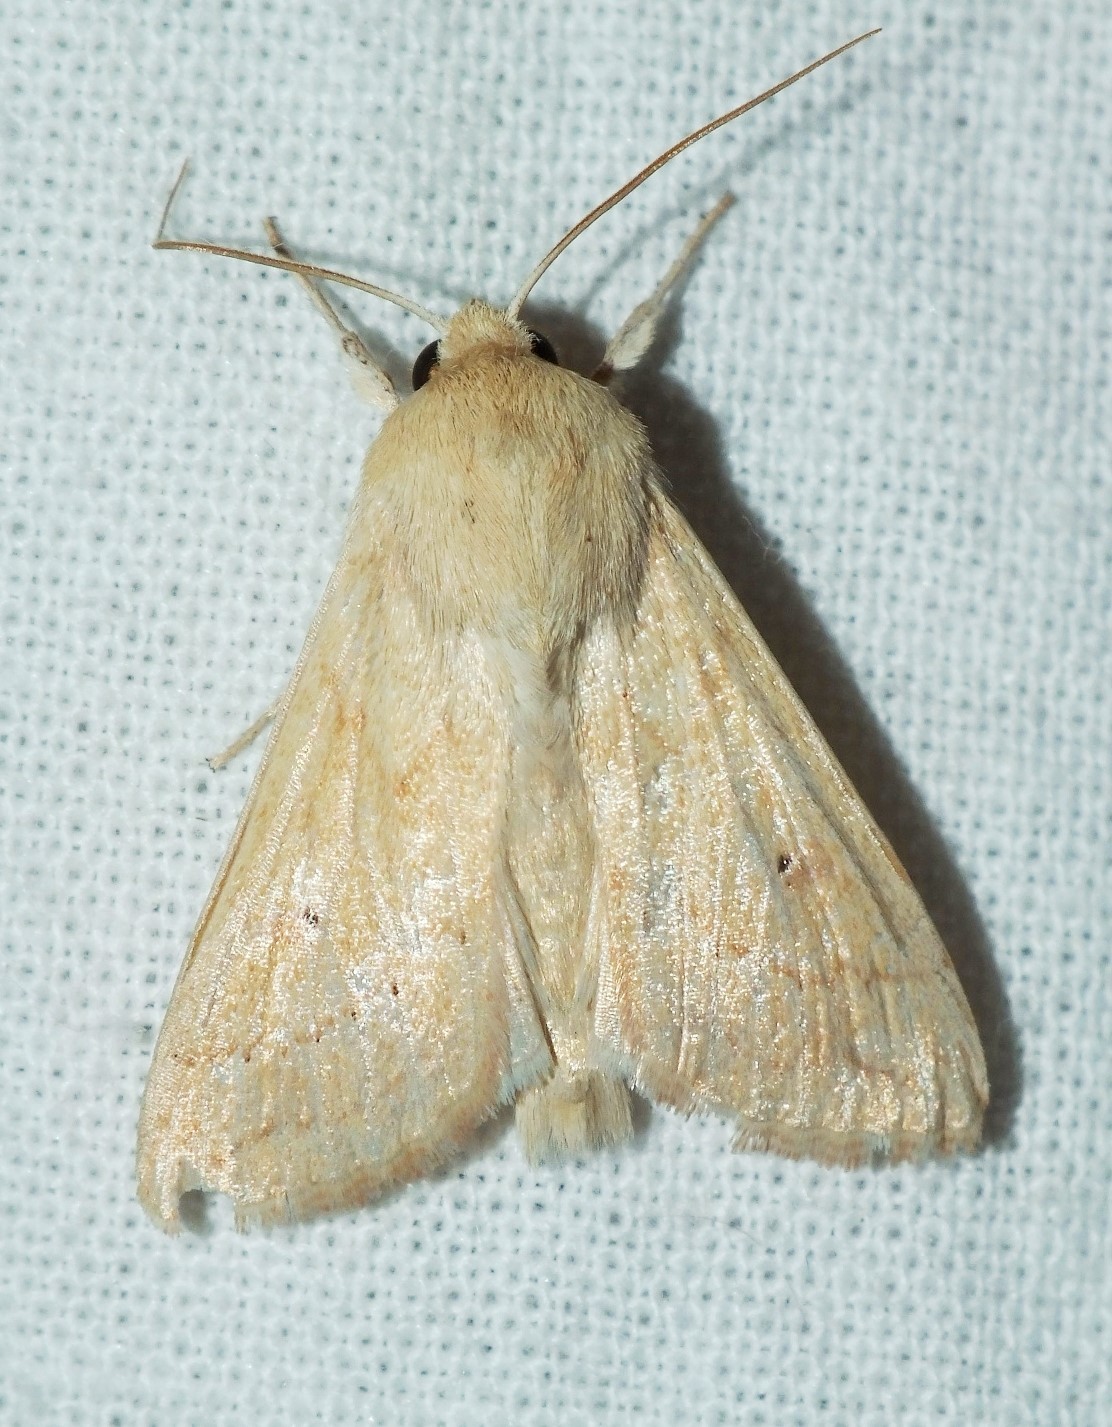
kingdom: Animalia
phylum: Arthropoda
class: Insecta
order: Lepidoptera
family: Noctuidae
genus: Mythimna
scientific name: Mythimna vitellina
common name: Delicate
